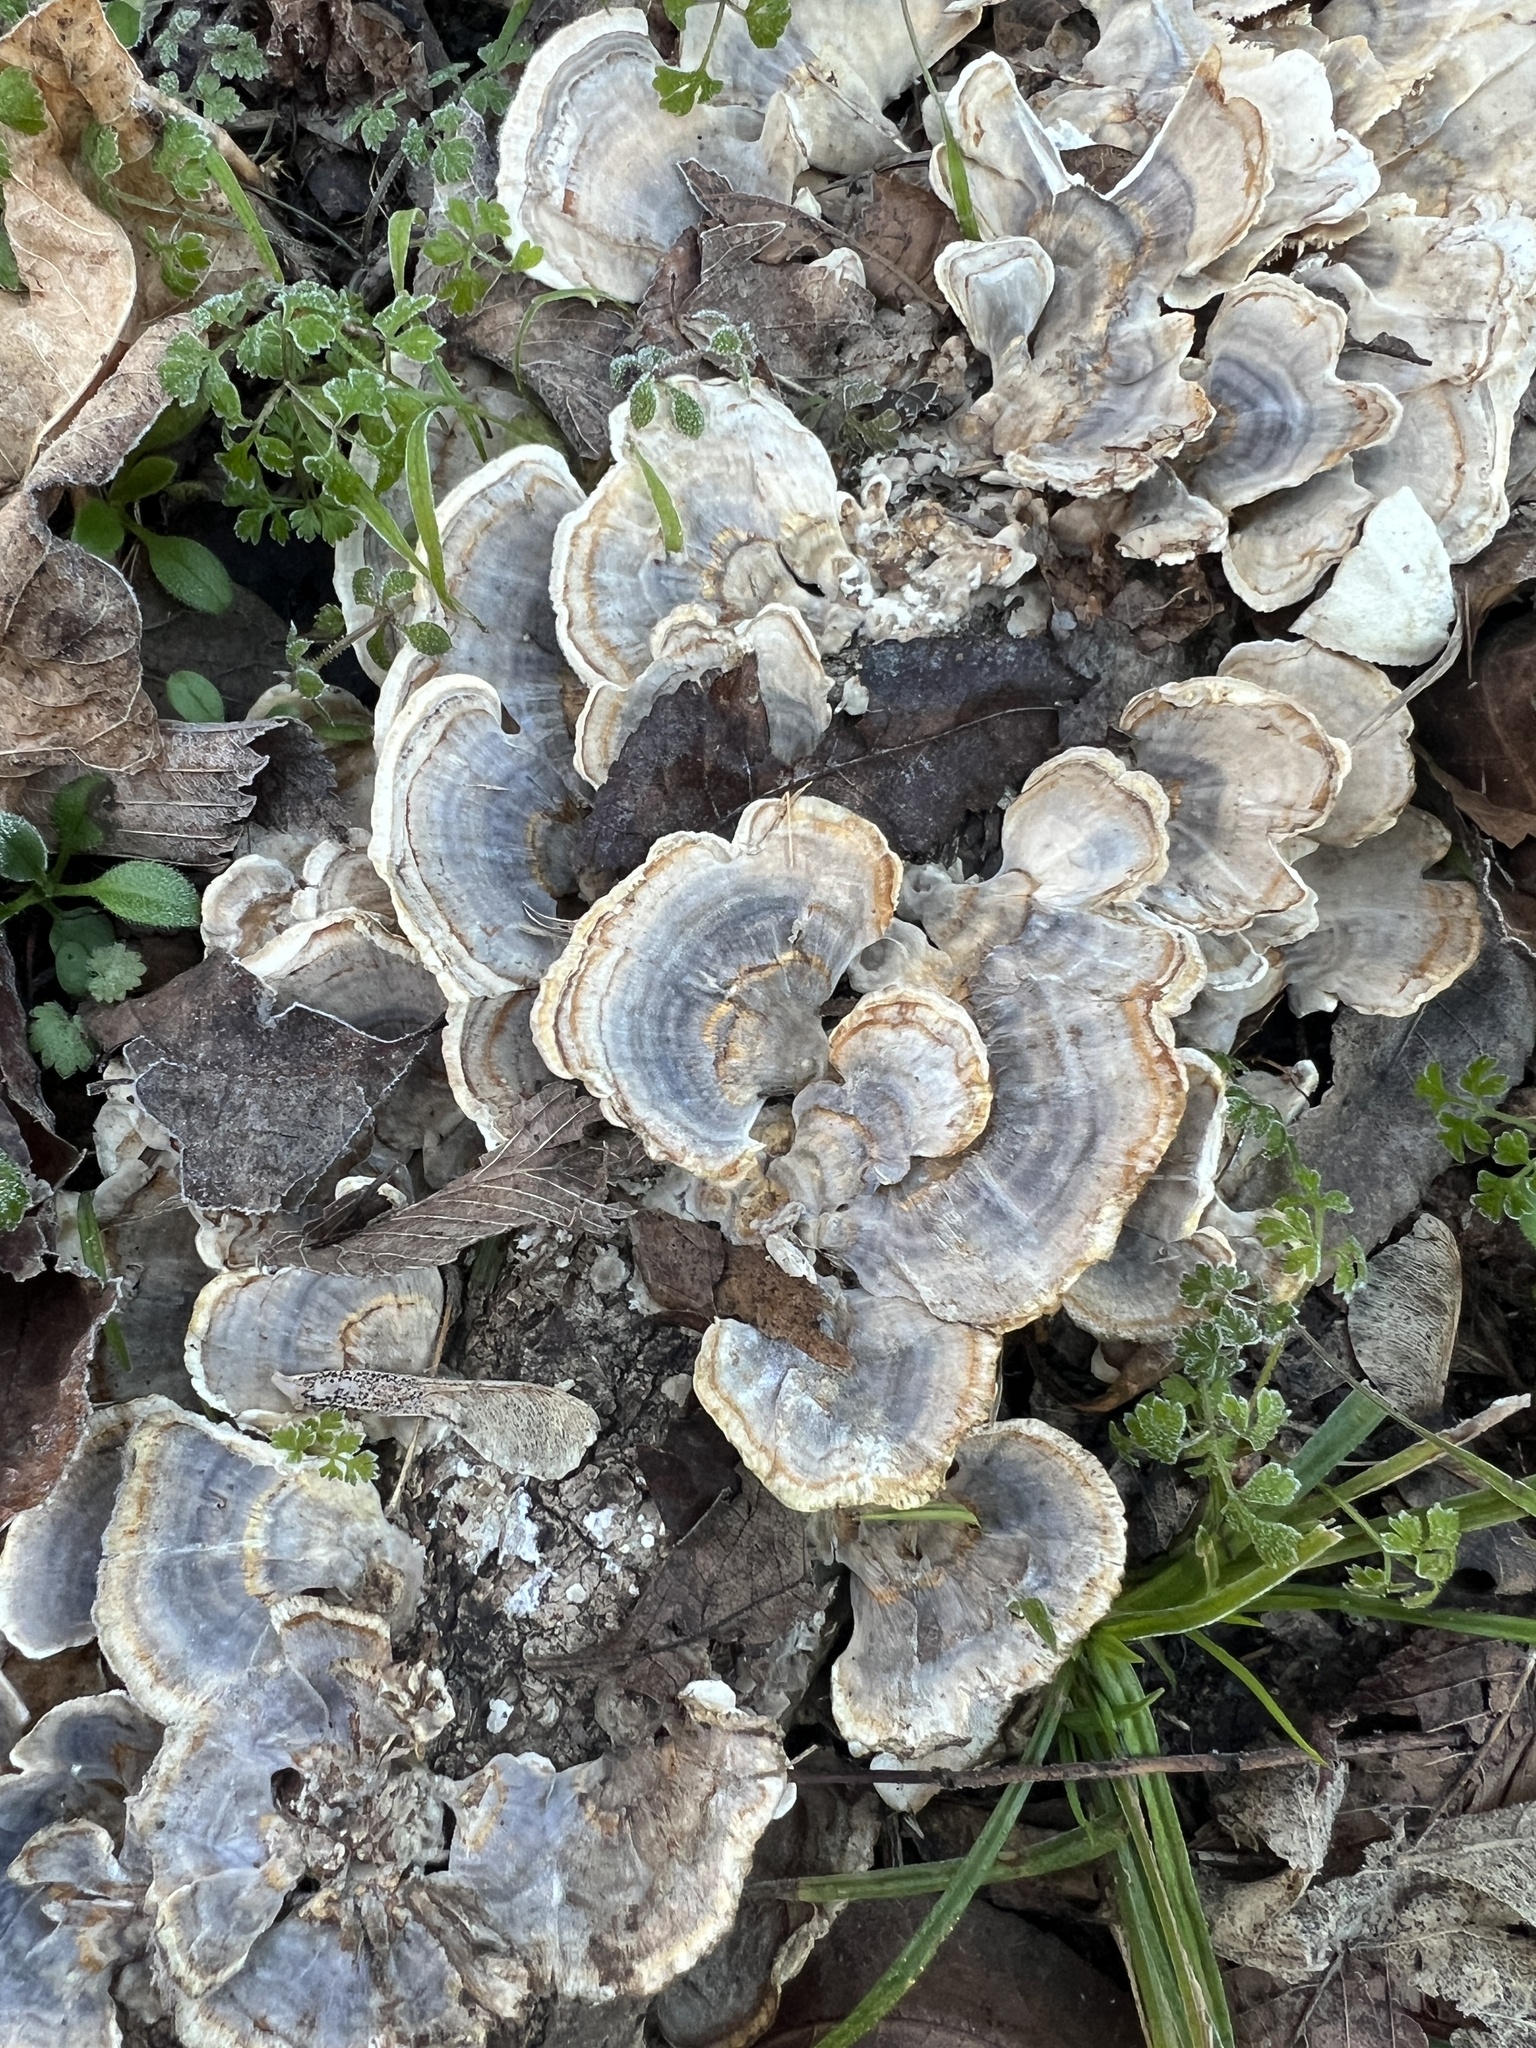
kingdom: Fungi
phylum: Basidiomycota
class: Agaricomycetes
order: Polyporales
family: Polyporaceae
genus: Trametes
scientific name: Trametes versicolor
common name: Turkeytail
